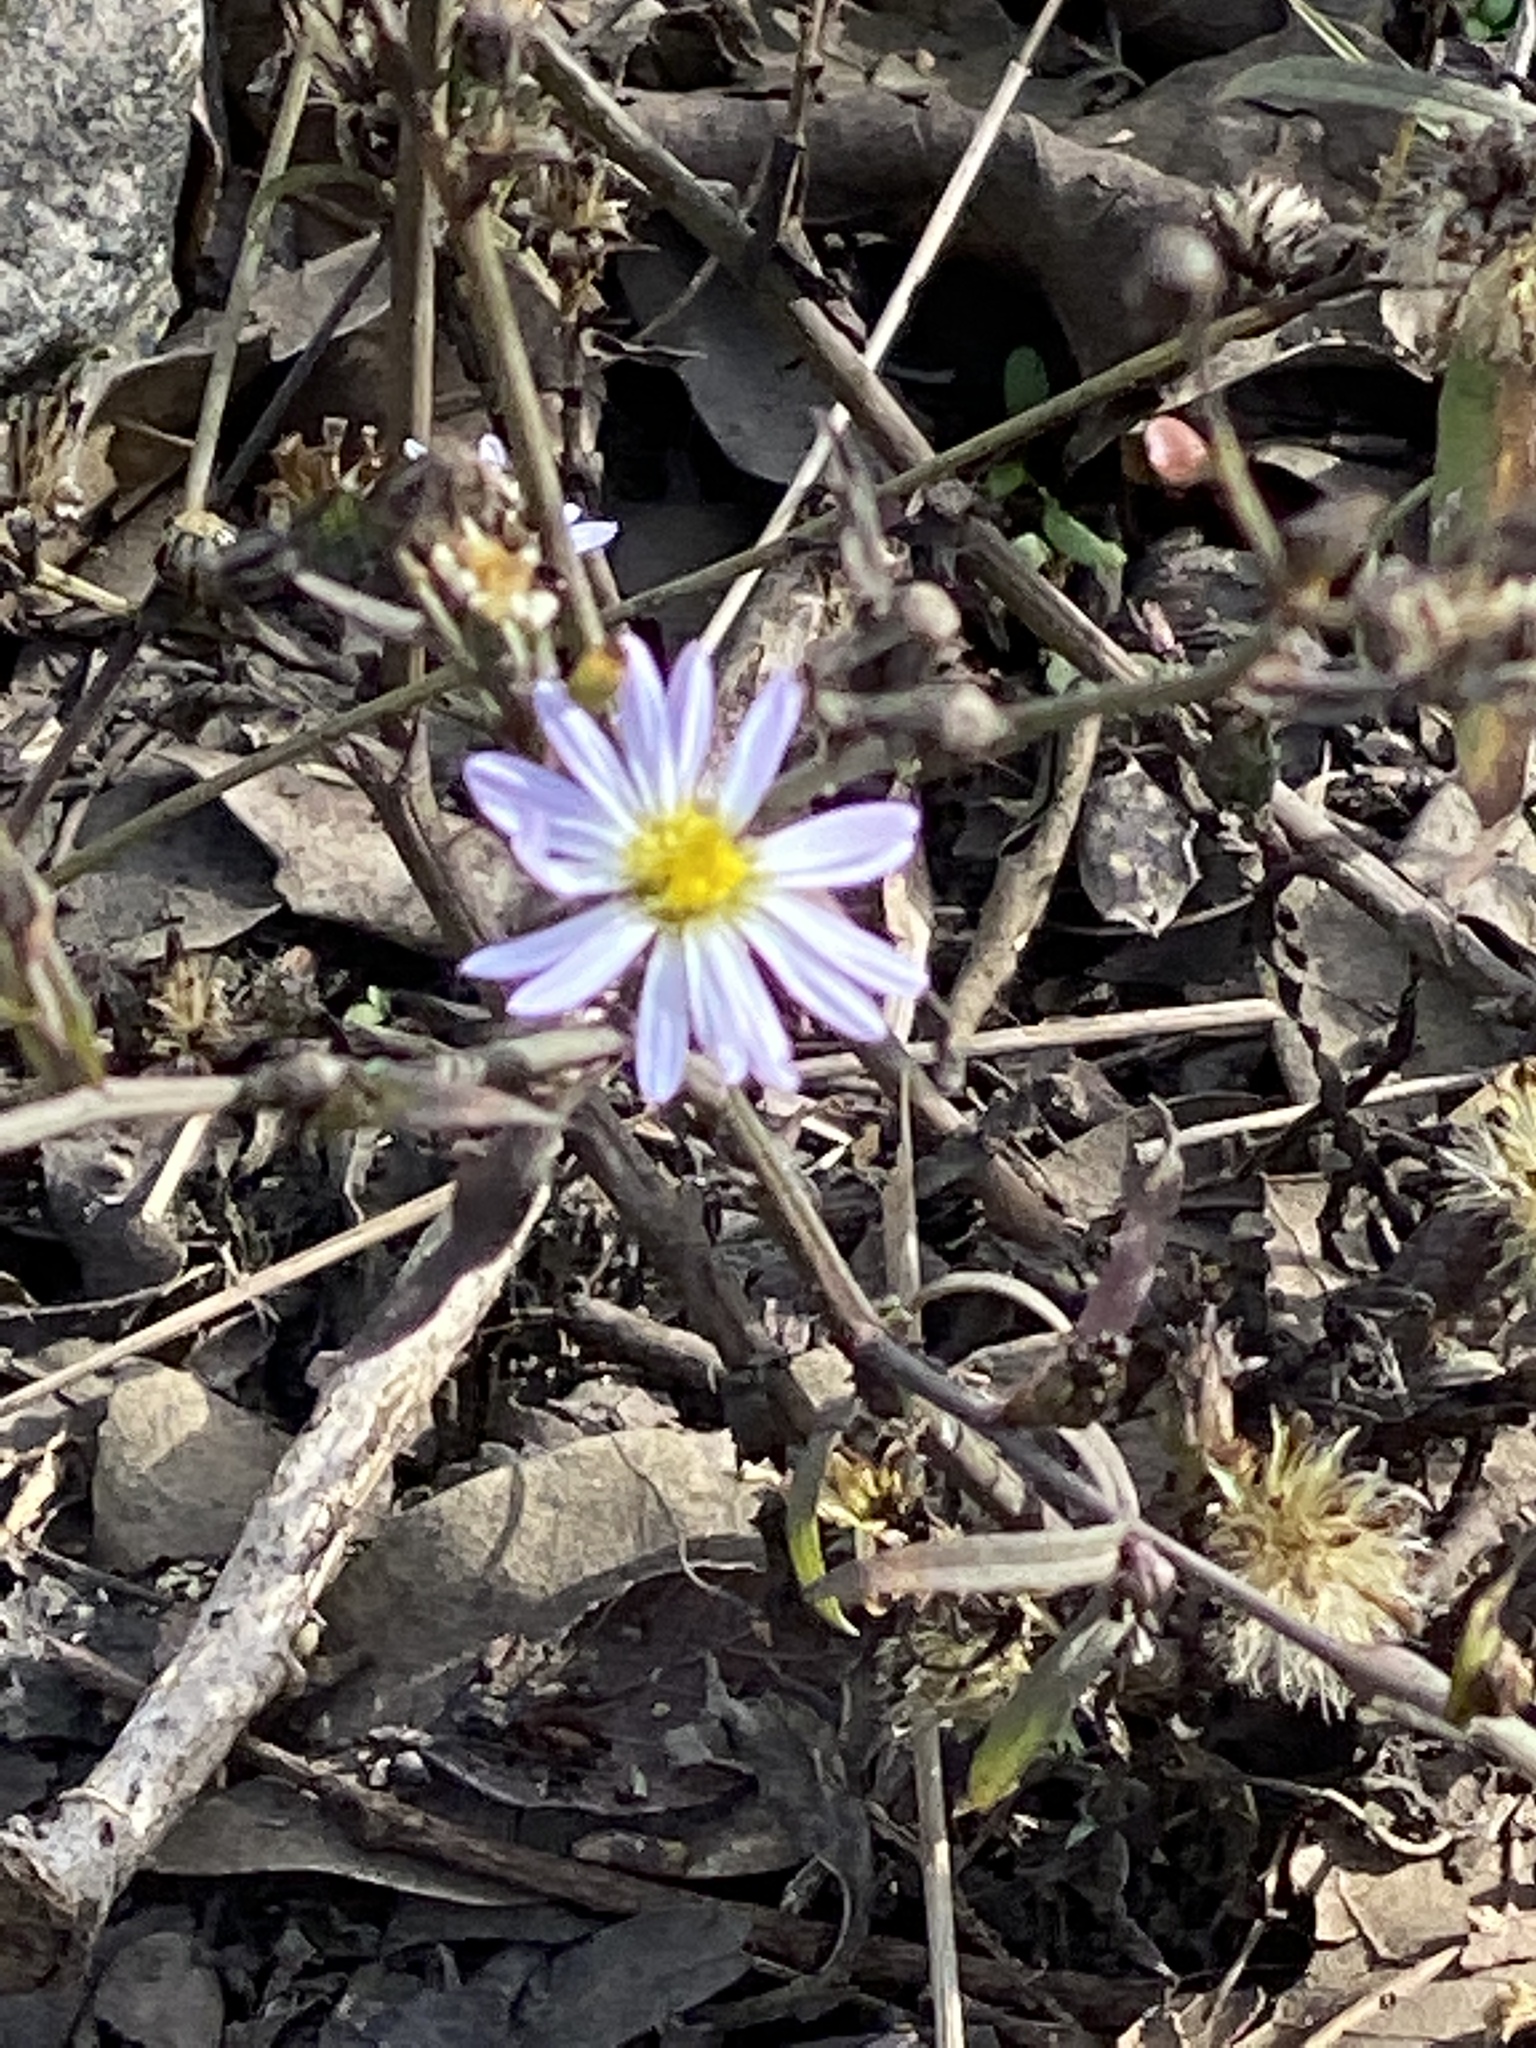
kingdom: Plantae
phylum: Tracheophyta
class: Magnoliopsida
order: Asterales
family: Asteraceae
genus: Symphyotrichum
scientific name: Symphyotrichum divaricatum
